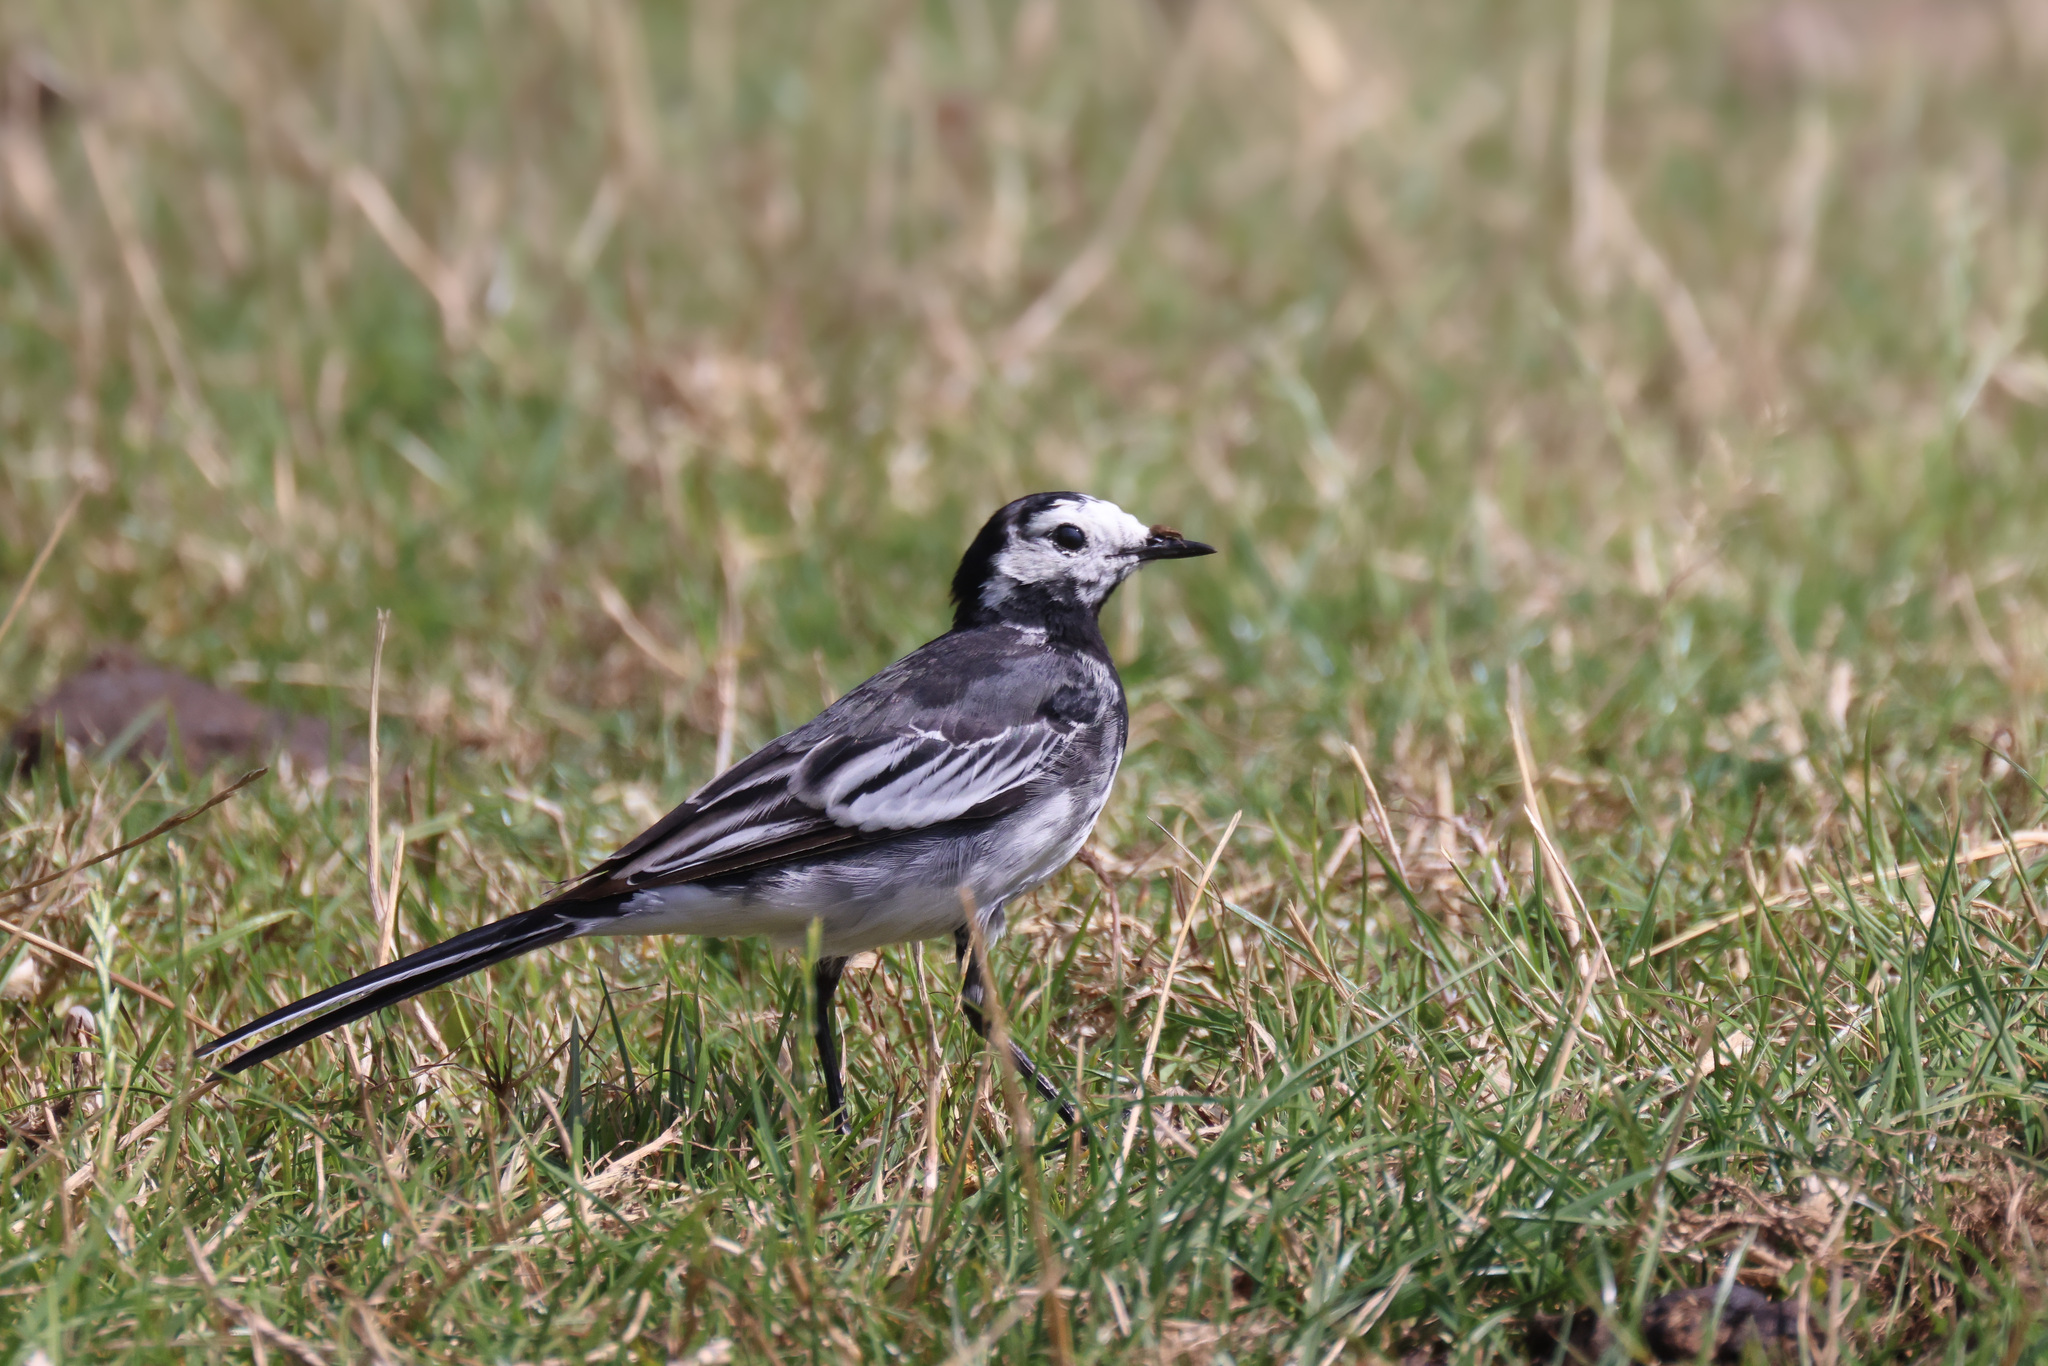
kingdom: Animalia
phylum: Chordata
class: Aves
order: Passeriformes
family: Motacillidae
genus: Motacilla
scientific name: Motacilla alba
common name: White wagtail
